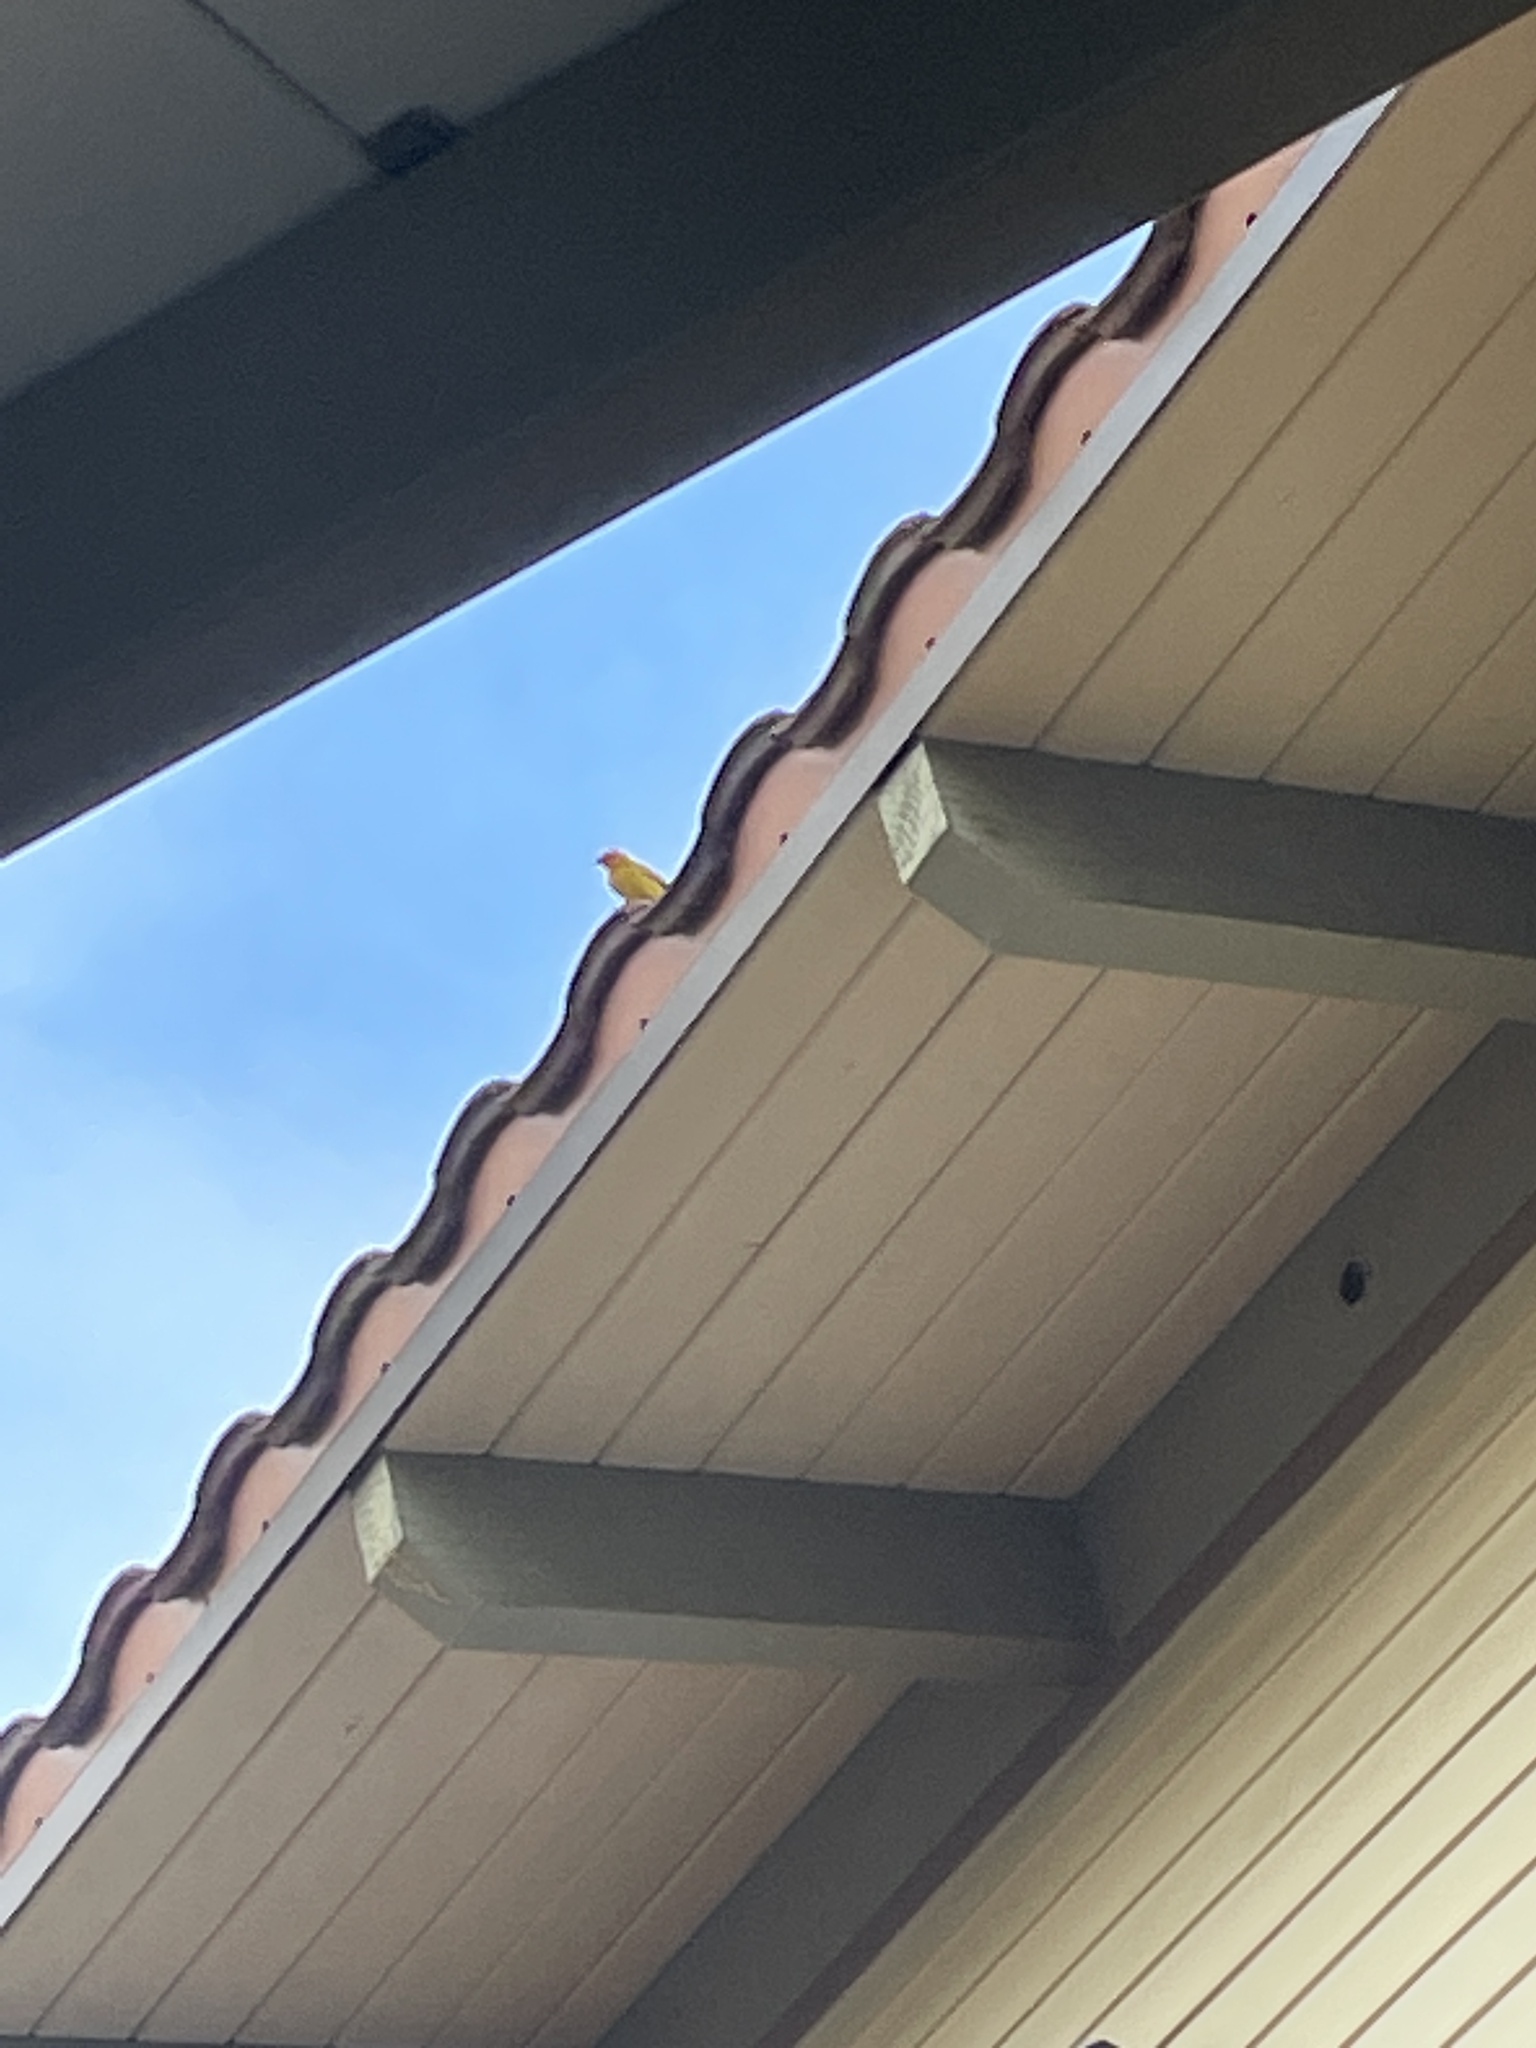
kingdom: Animalia
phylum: Chordata
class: Aves
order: Passeriformes
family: Thraupidae
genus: Sicalis
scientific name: Sicalis flaveola
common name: Saffron finch
